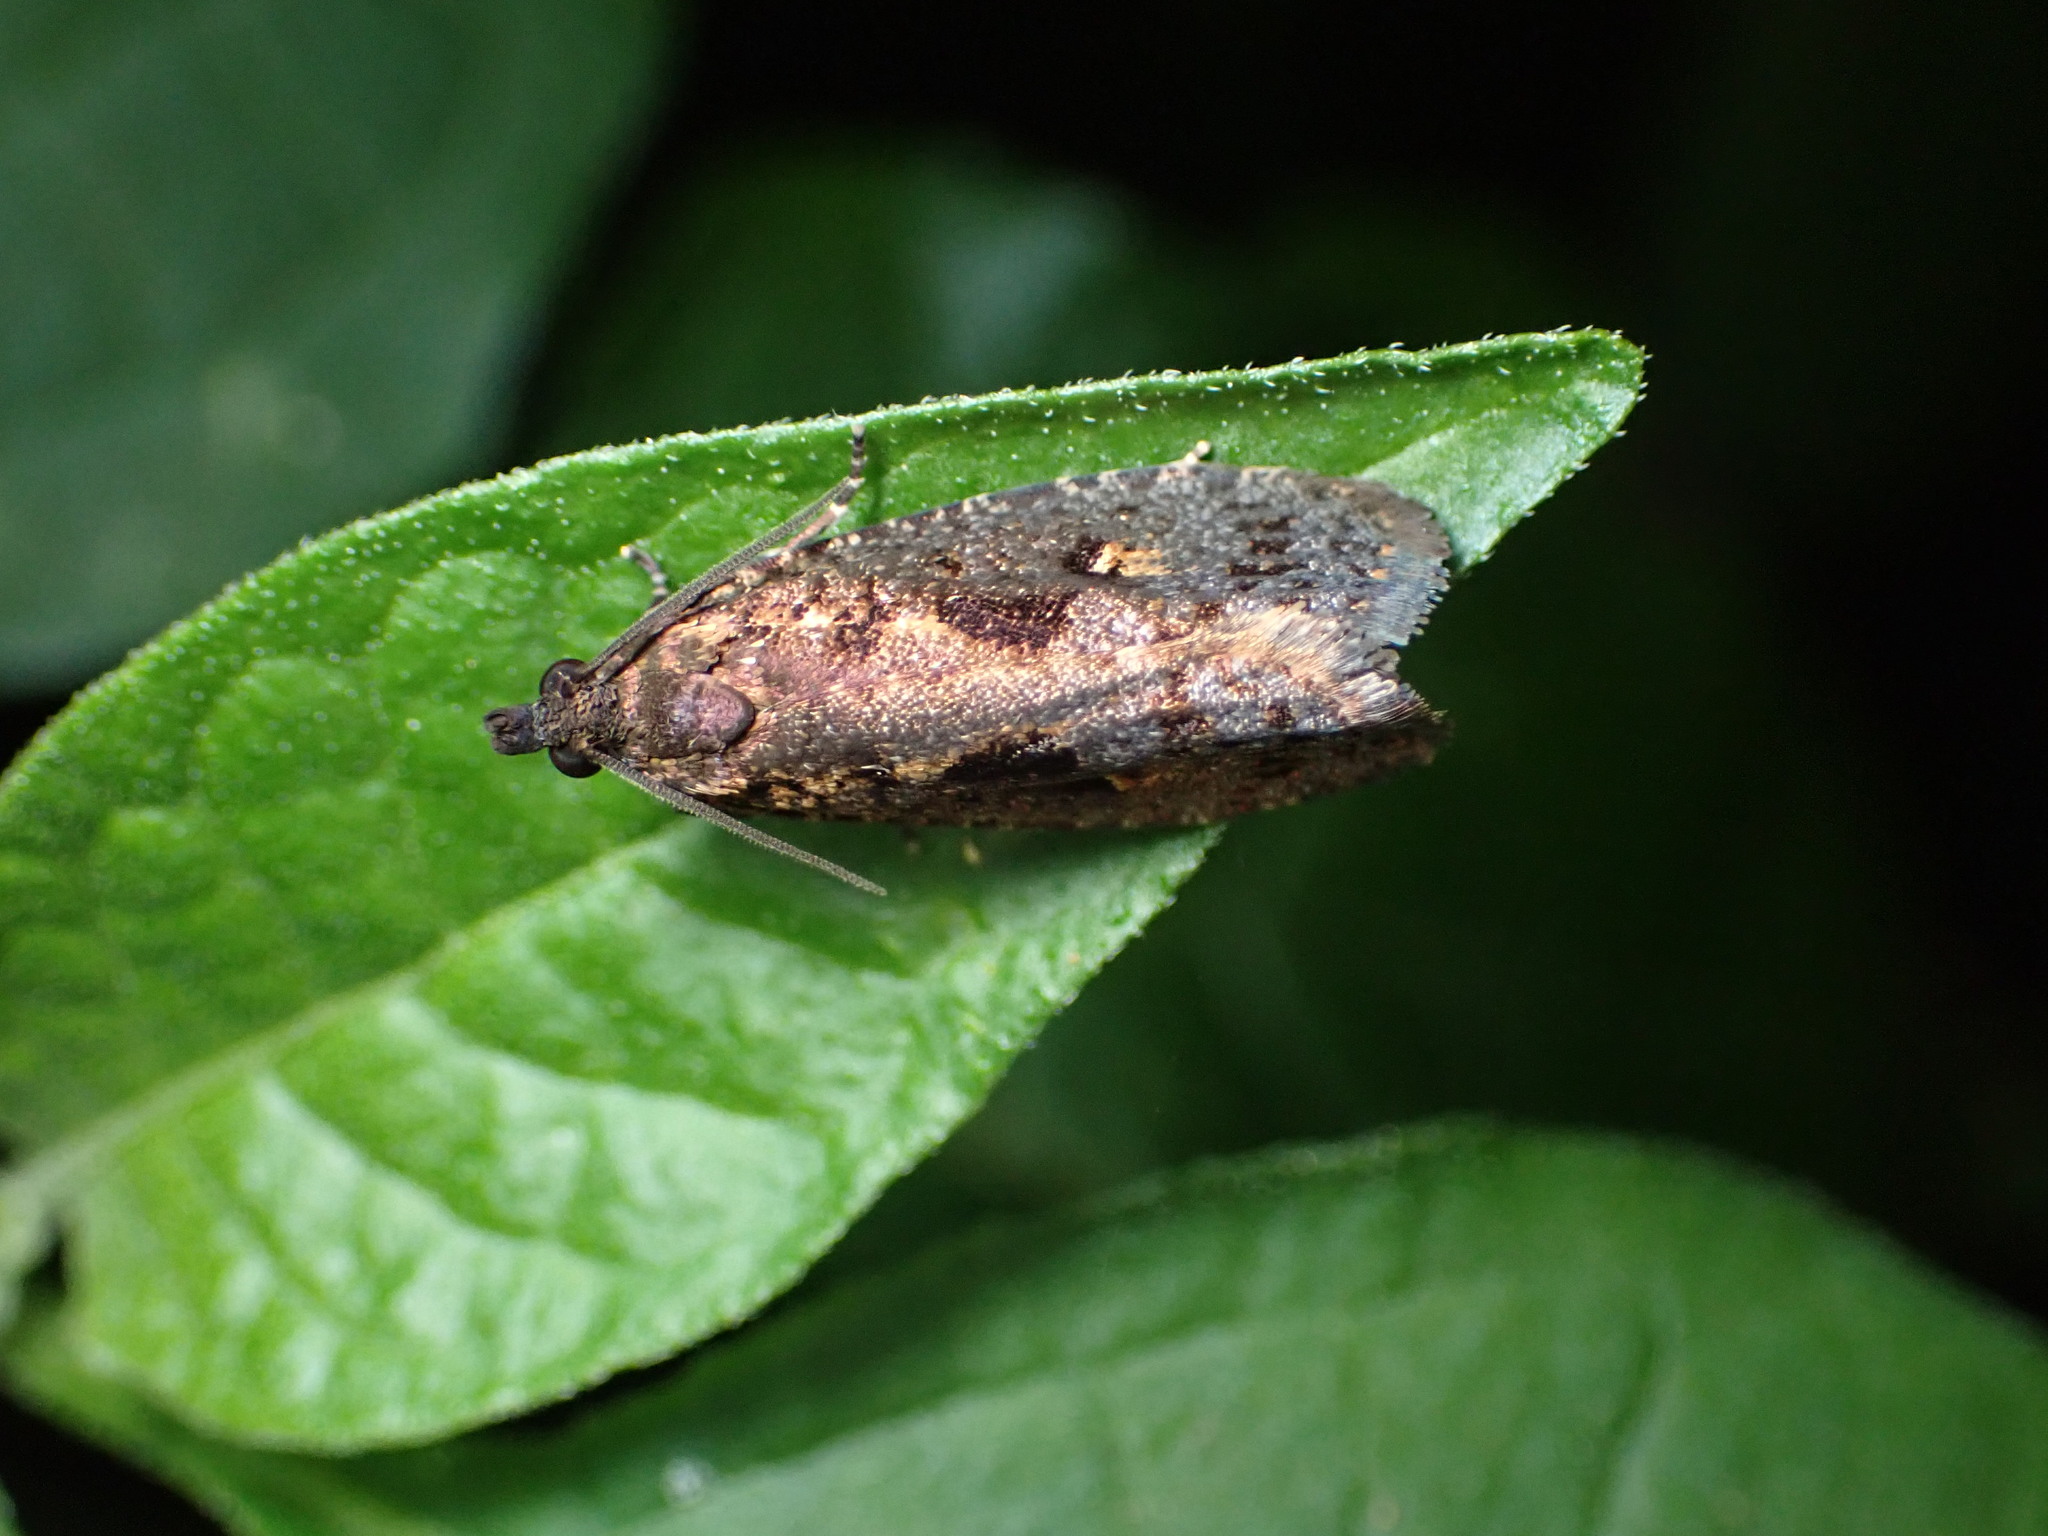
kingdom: Animalia
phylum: Arthropoda
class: Insecta
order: Lepidoptera
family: Tortricidae
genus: Cryptaspasma
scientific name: Cryptaspasma querula
